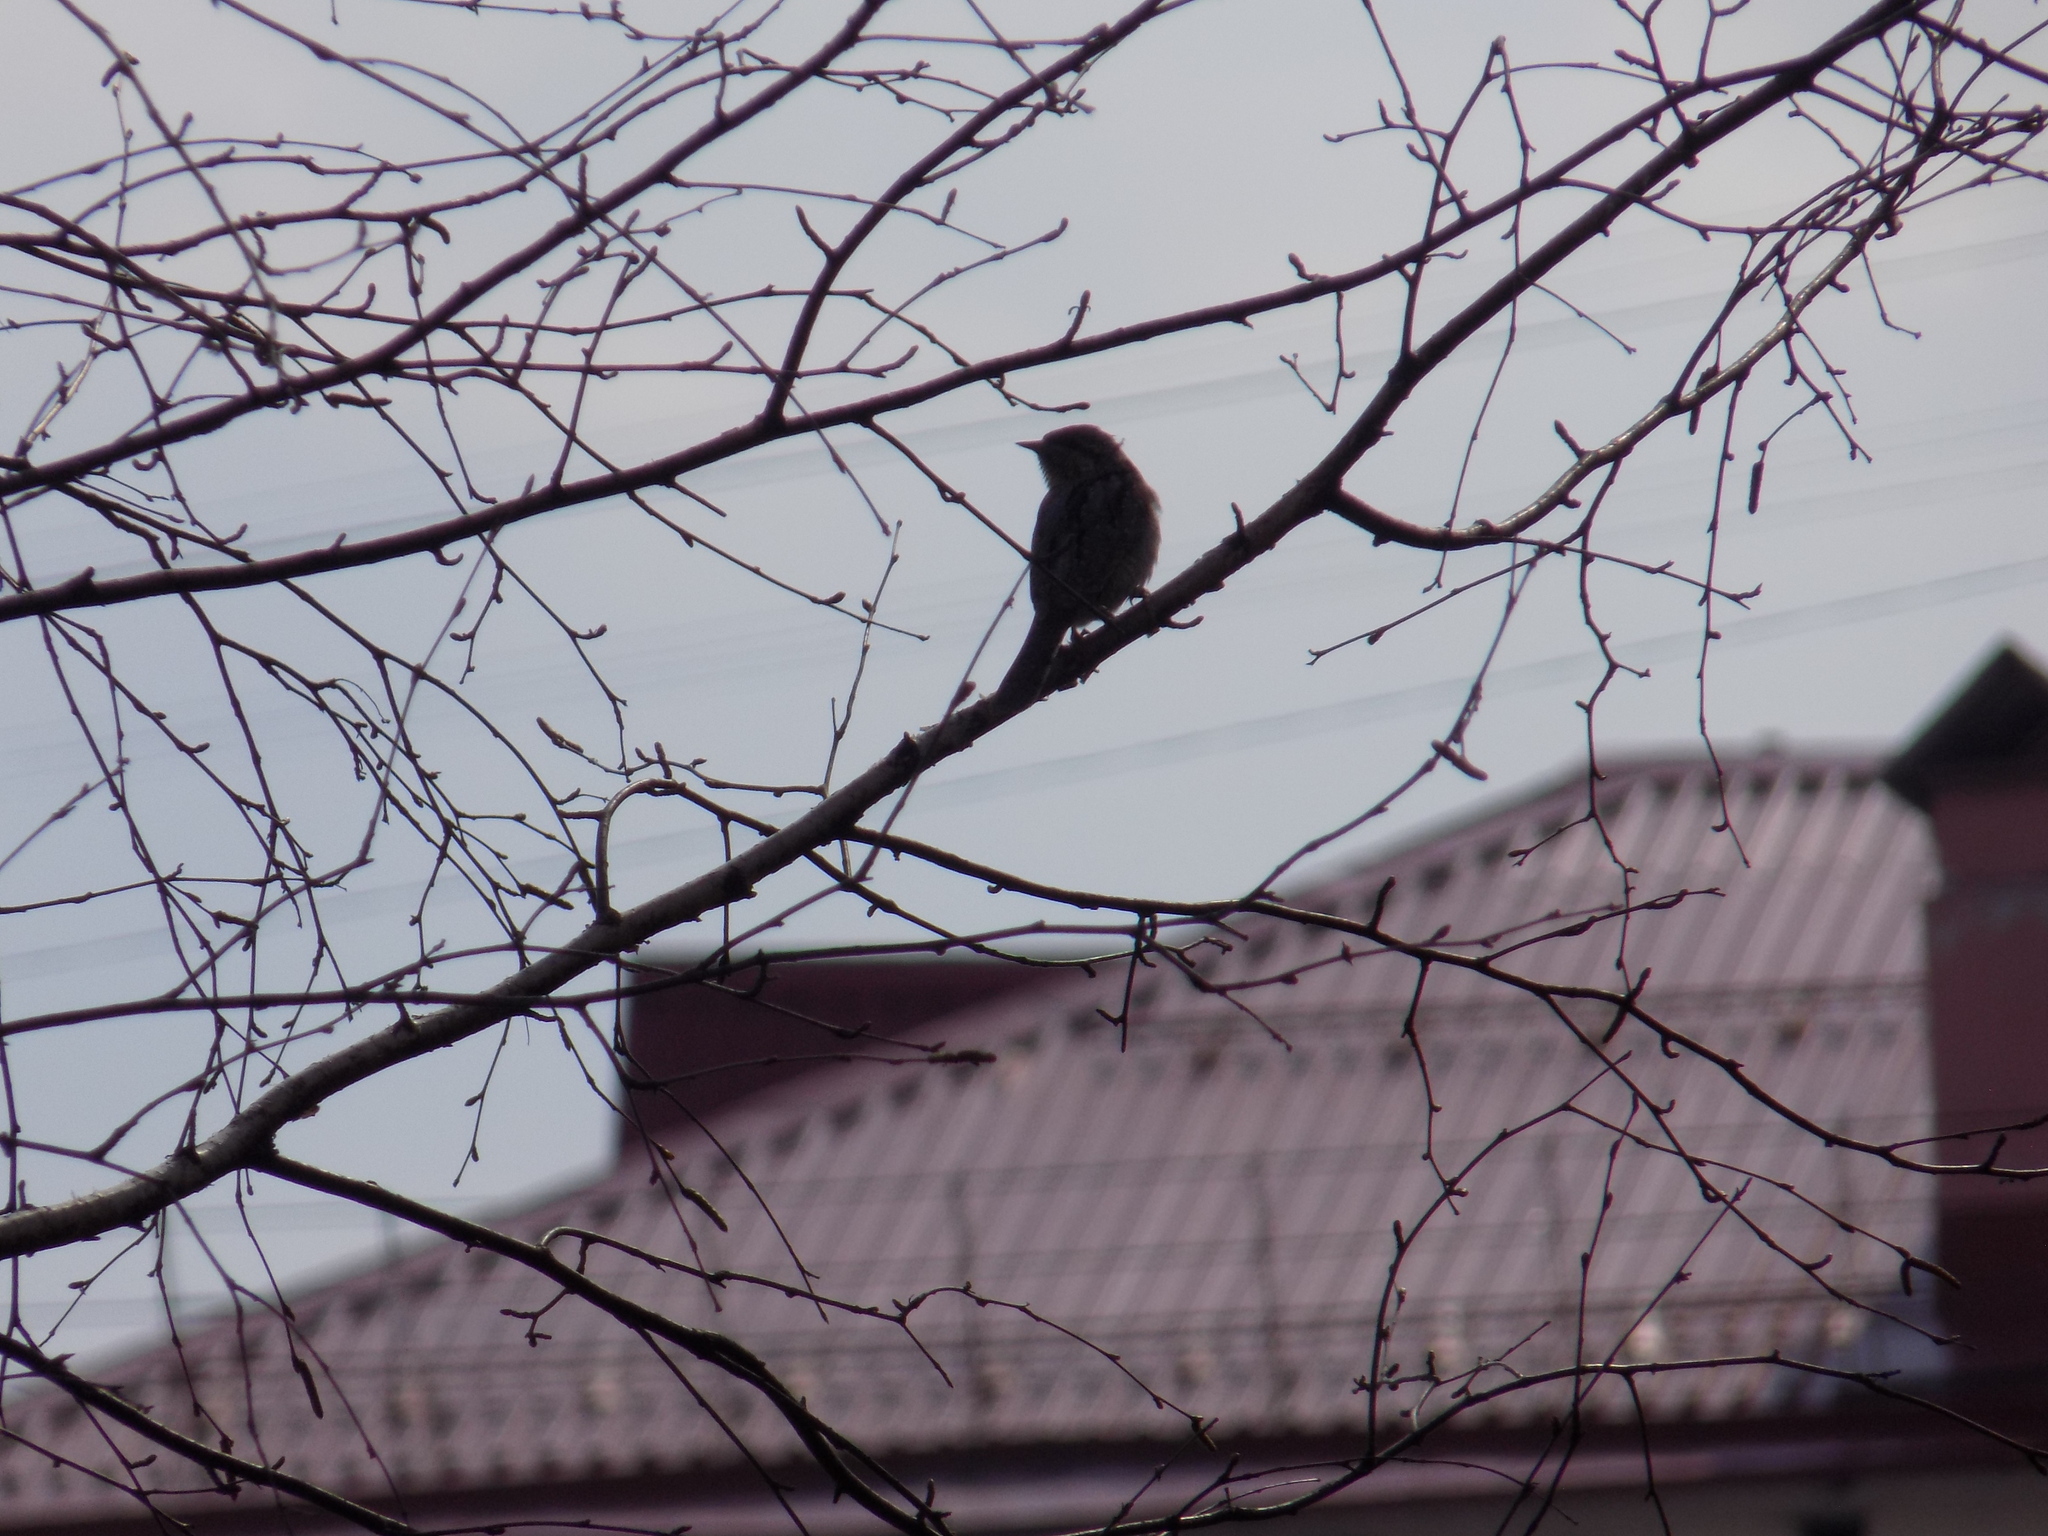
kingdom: Animalia
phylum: Chordata
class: Aves
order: Piciformes
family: Picidae
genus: Jynx
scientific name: Jynx torquilla
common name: Eurasian wryneck
